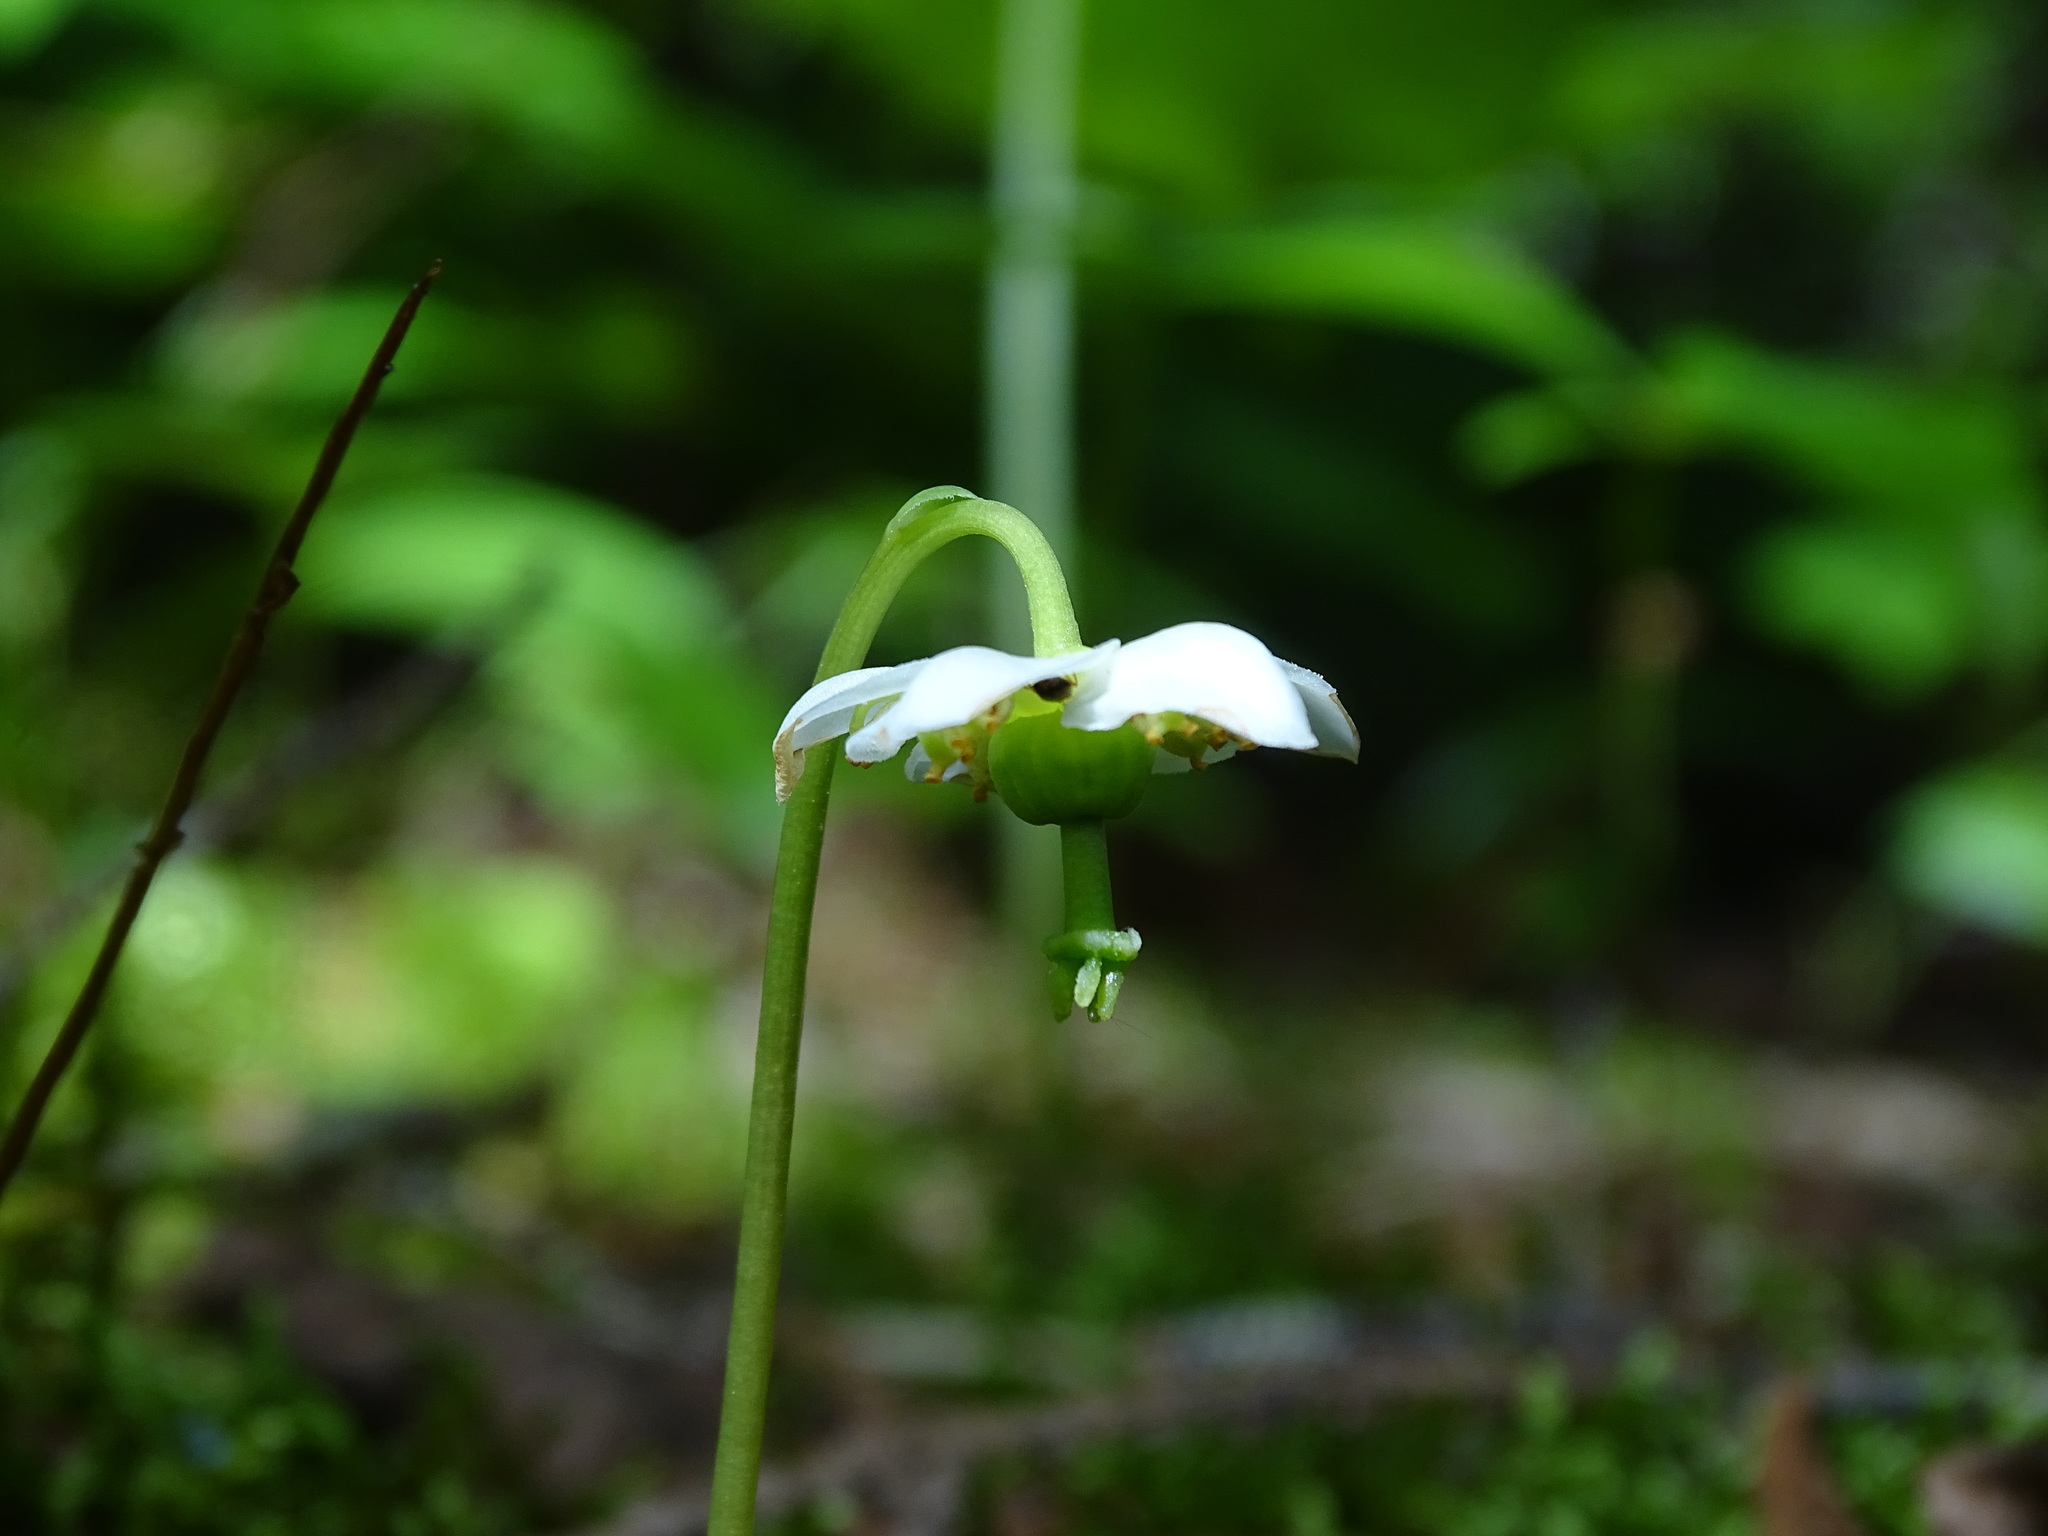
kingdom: Plantae
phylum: Tracheophyta
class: Magnoliopsida
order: Ericales
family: Ericaceae
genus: Moneses
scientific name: Moneses uniflora
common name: One-flowered wintergreen
